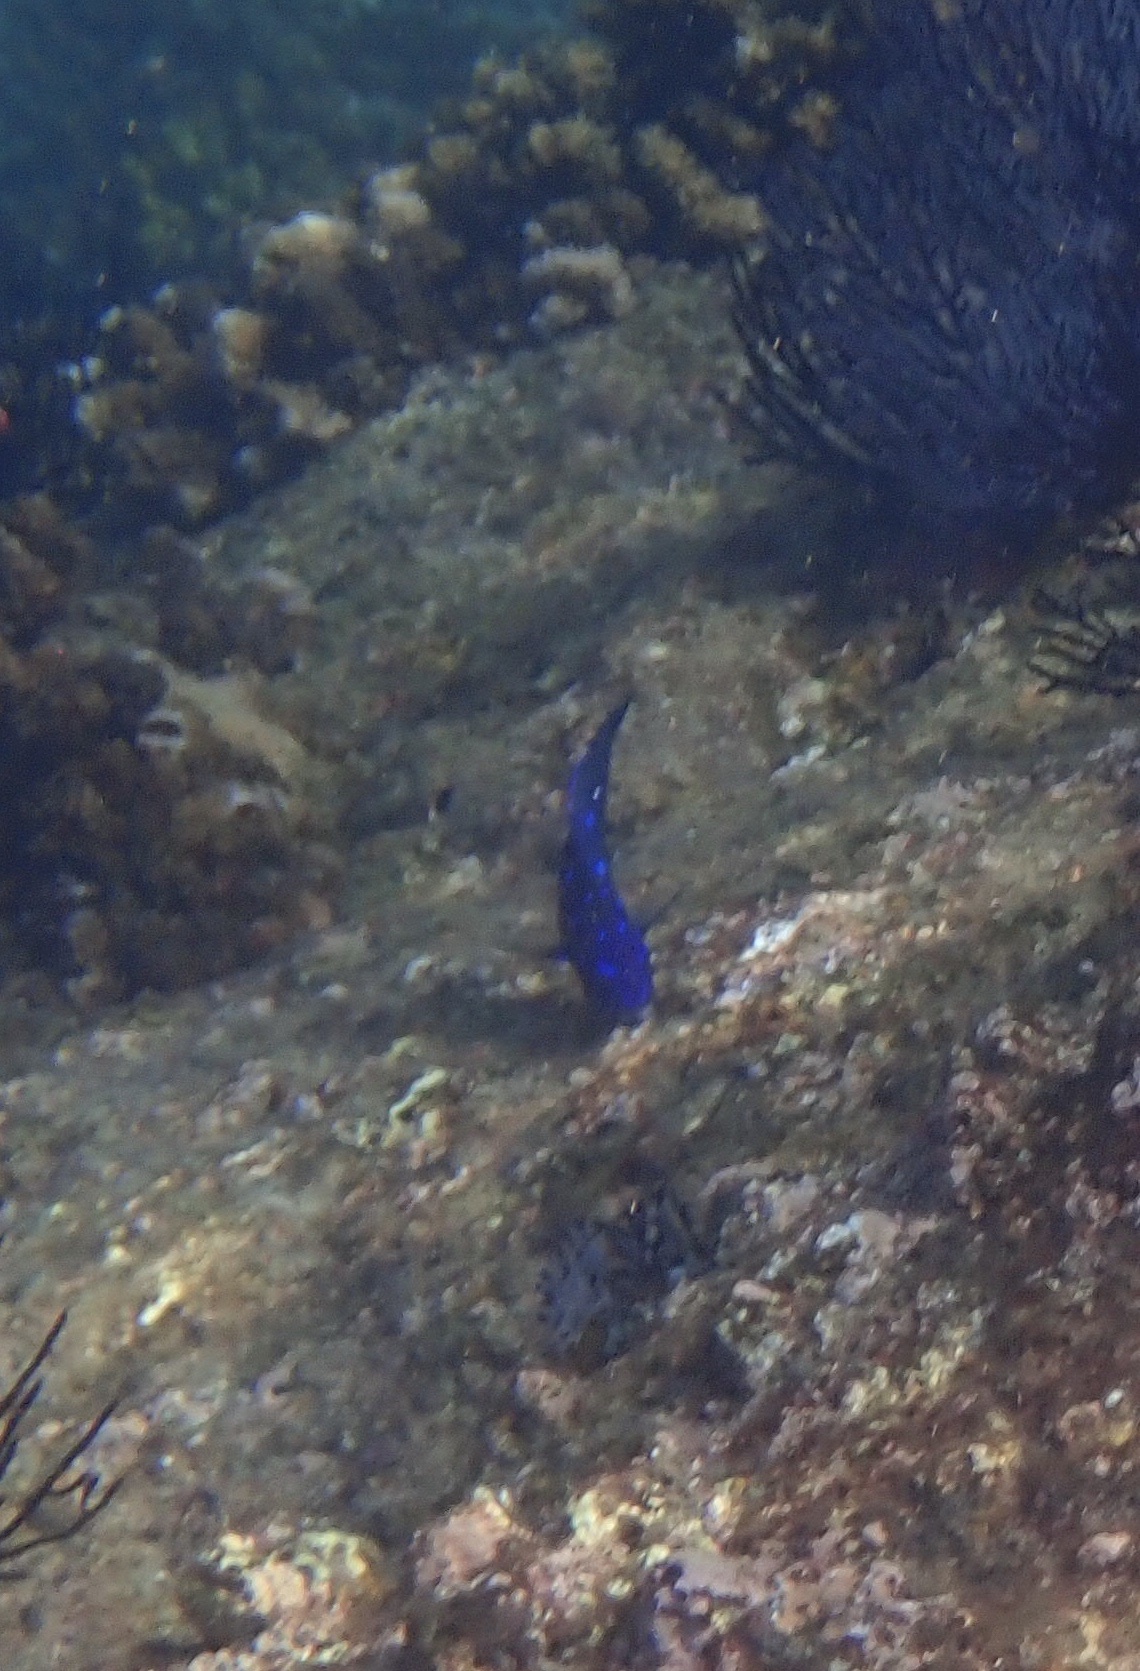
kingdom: Animalia
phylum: Chordata
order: Perciformes
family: Pomacentridae
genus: Microspathodon
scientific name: Microspathodon dorsalis
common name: Giant damselfish
